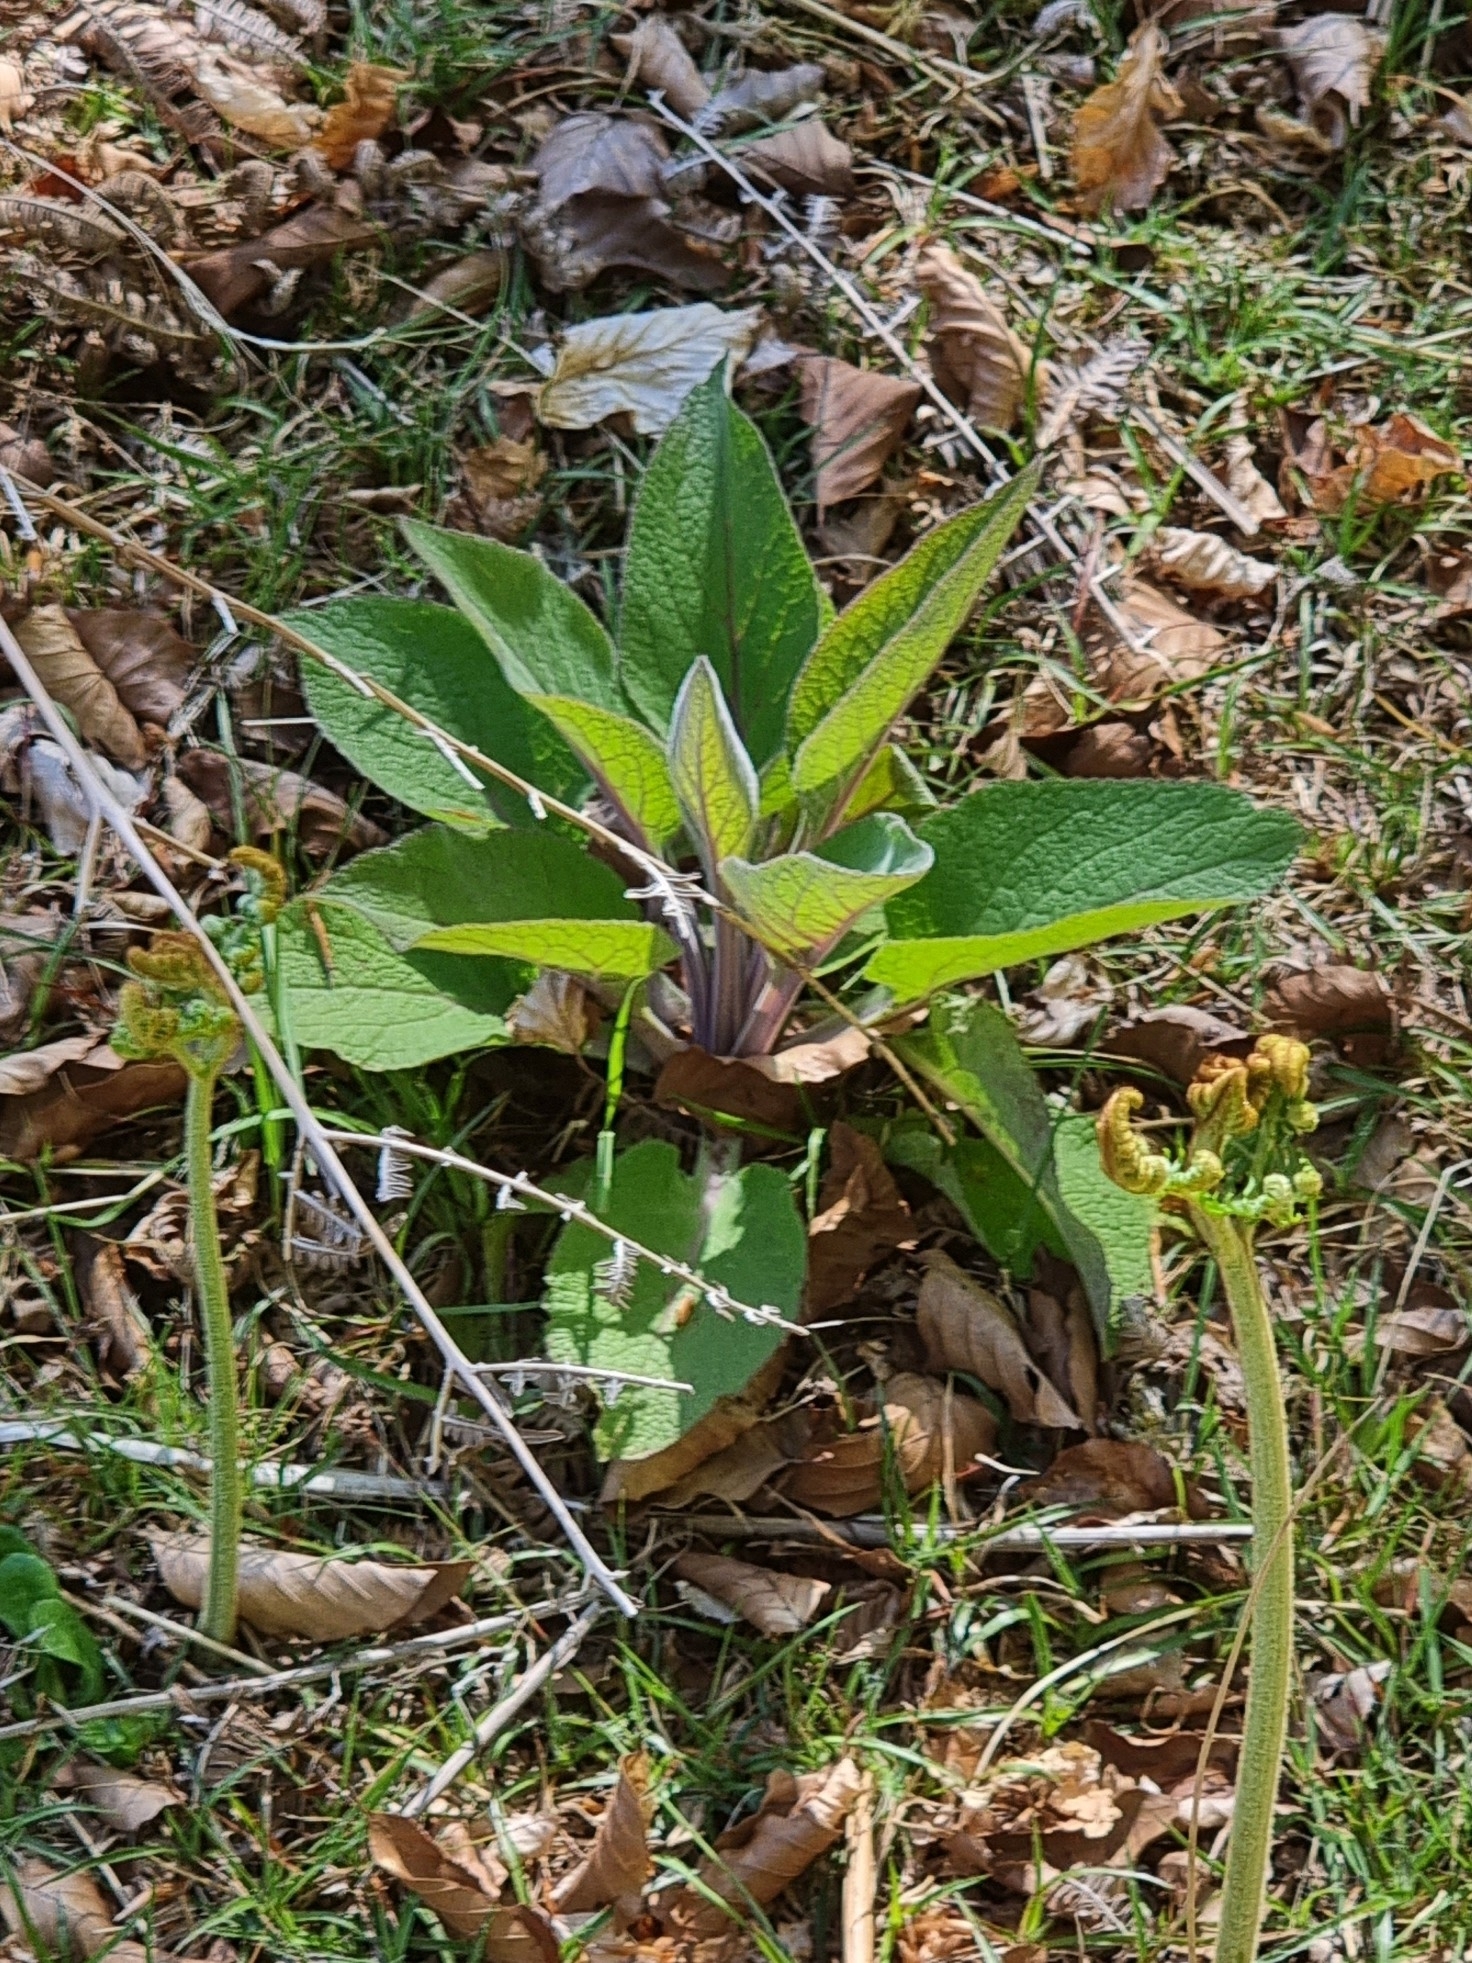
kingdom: Plantae
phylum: Tracheophyta
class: Magnoliopsida
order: Lamiales
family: Plantaginaceae
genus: Digitalis
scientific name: Digitalis purpurea
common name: Foxglove
